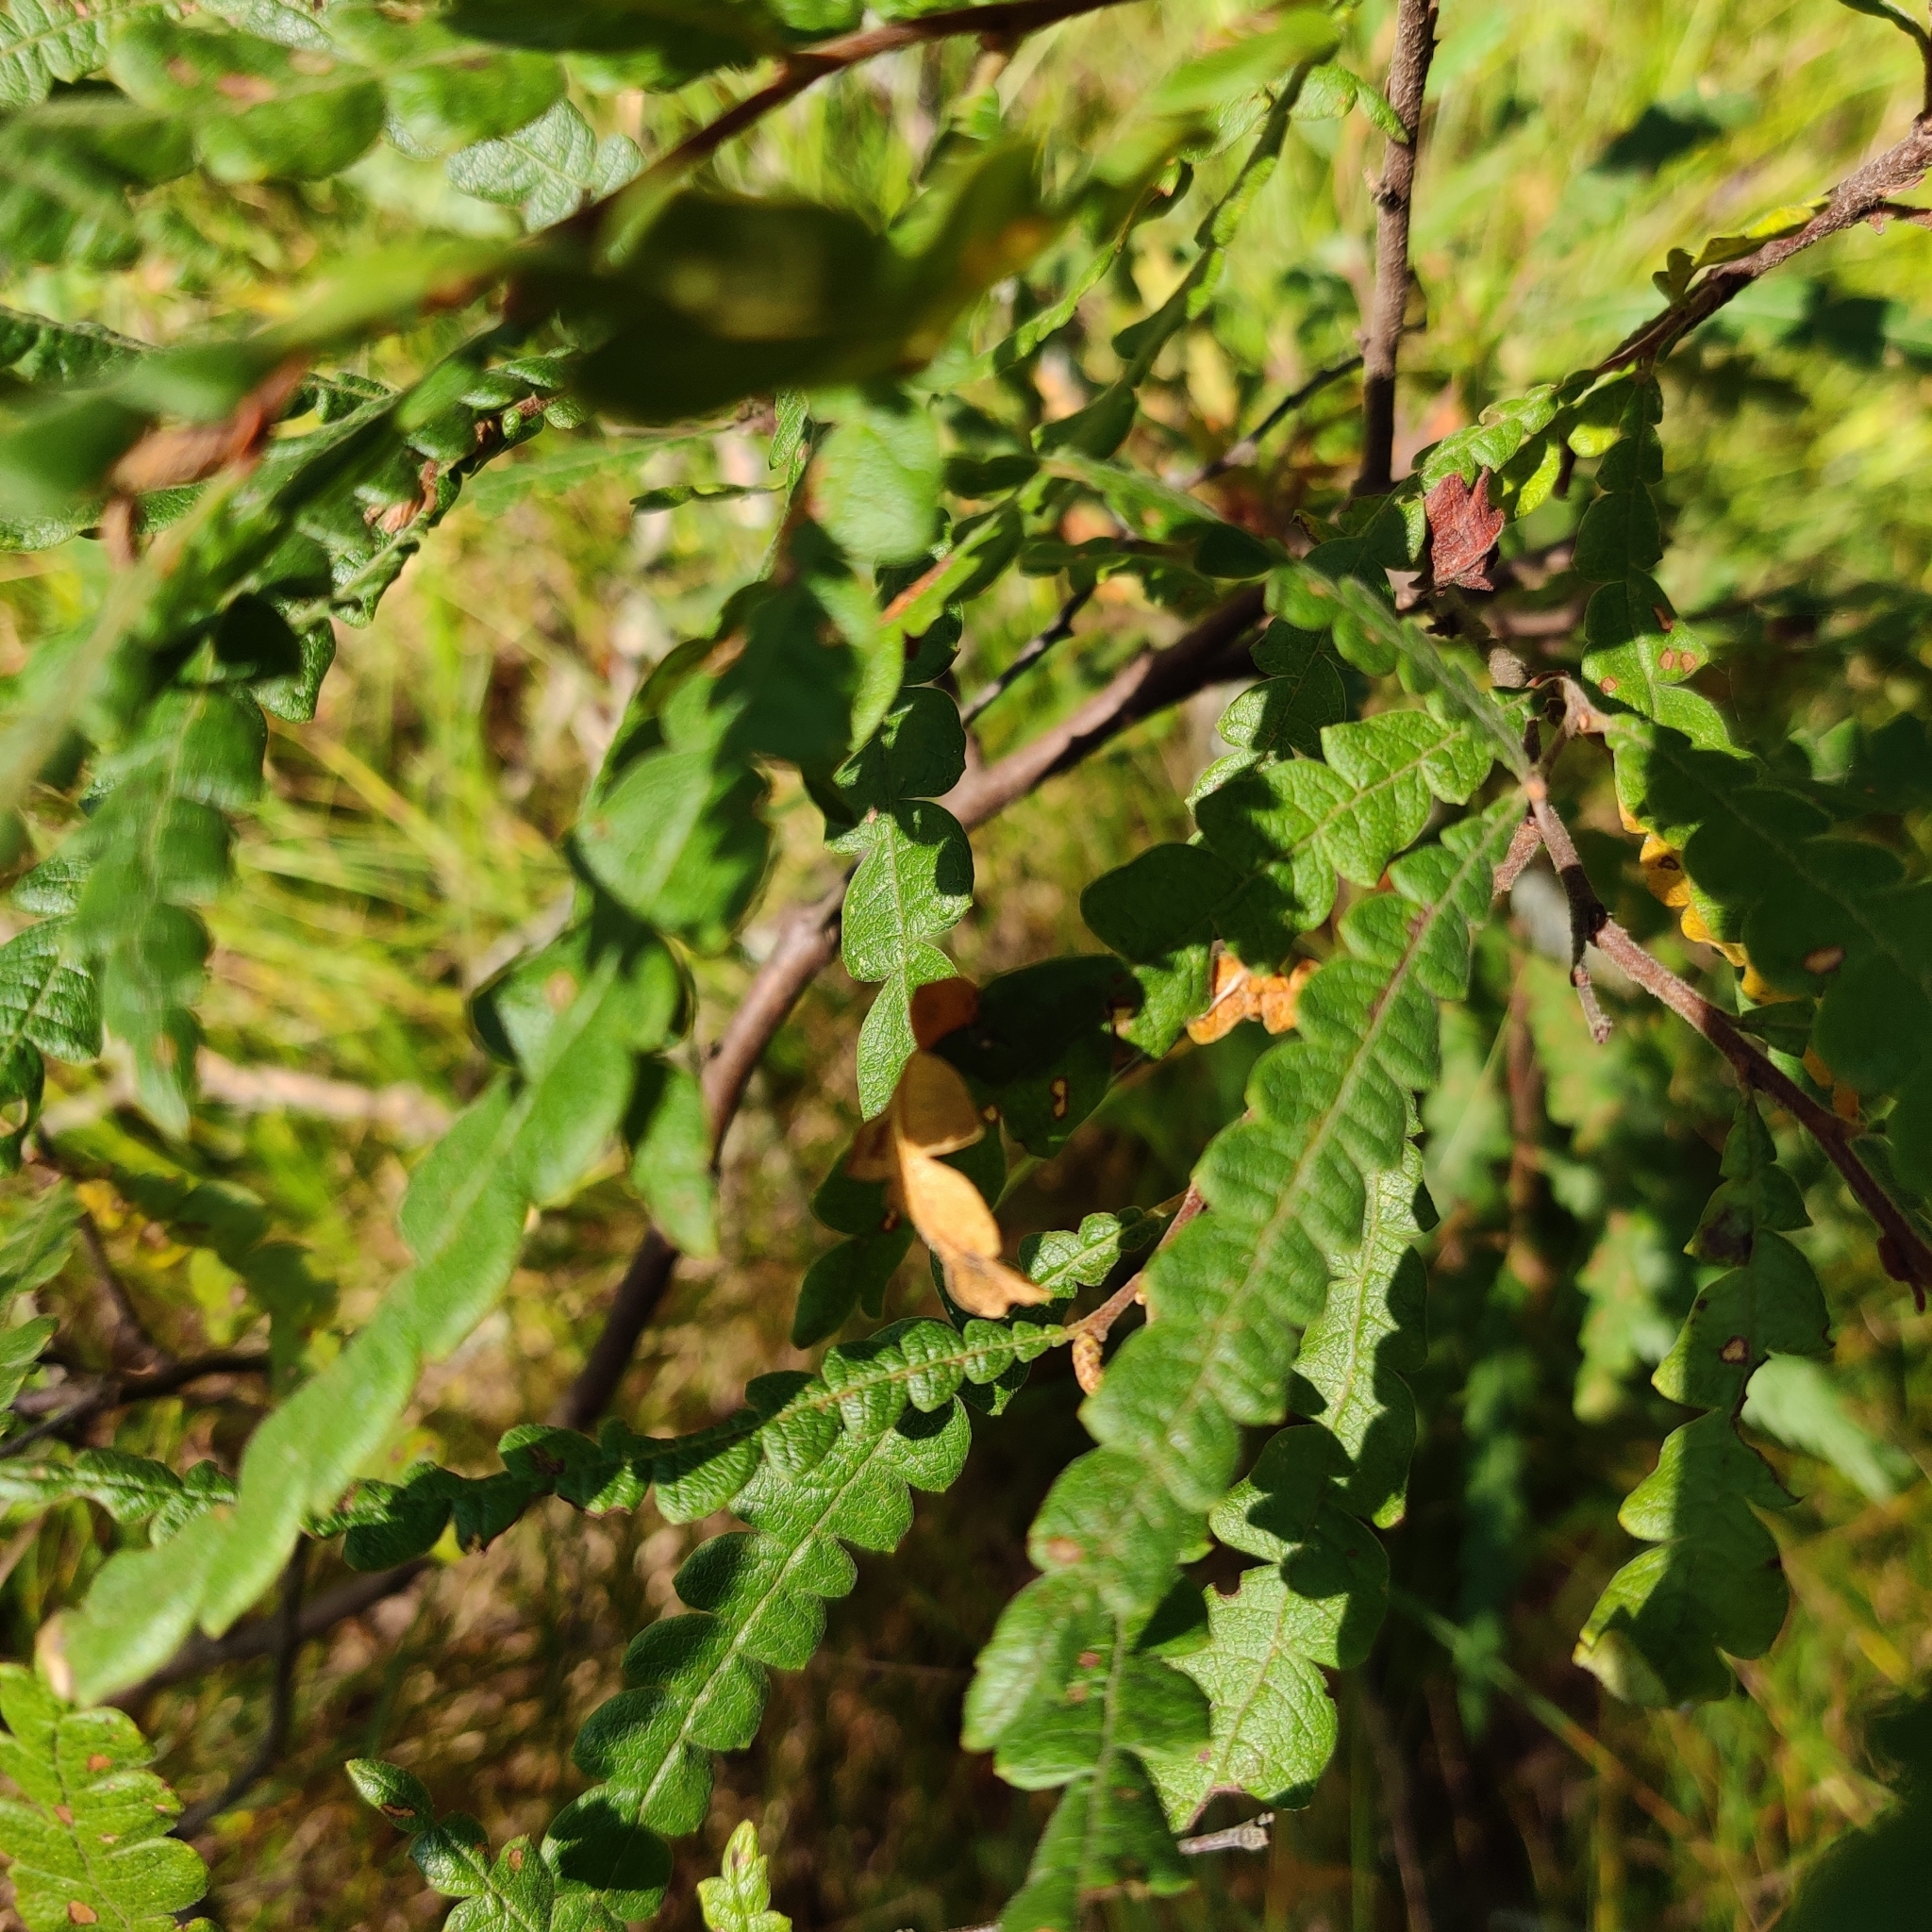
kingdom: Plantae
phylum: Tracheophyta
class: Magnoliopsida
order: Fagales
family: Myricaceae
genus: Comptonia
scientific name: Comptonia peregrina
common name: Sweet-fern
